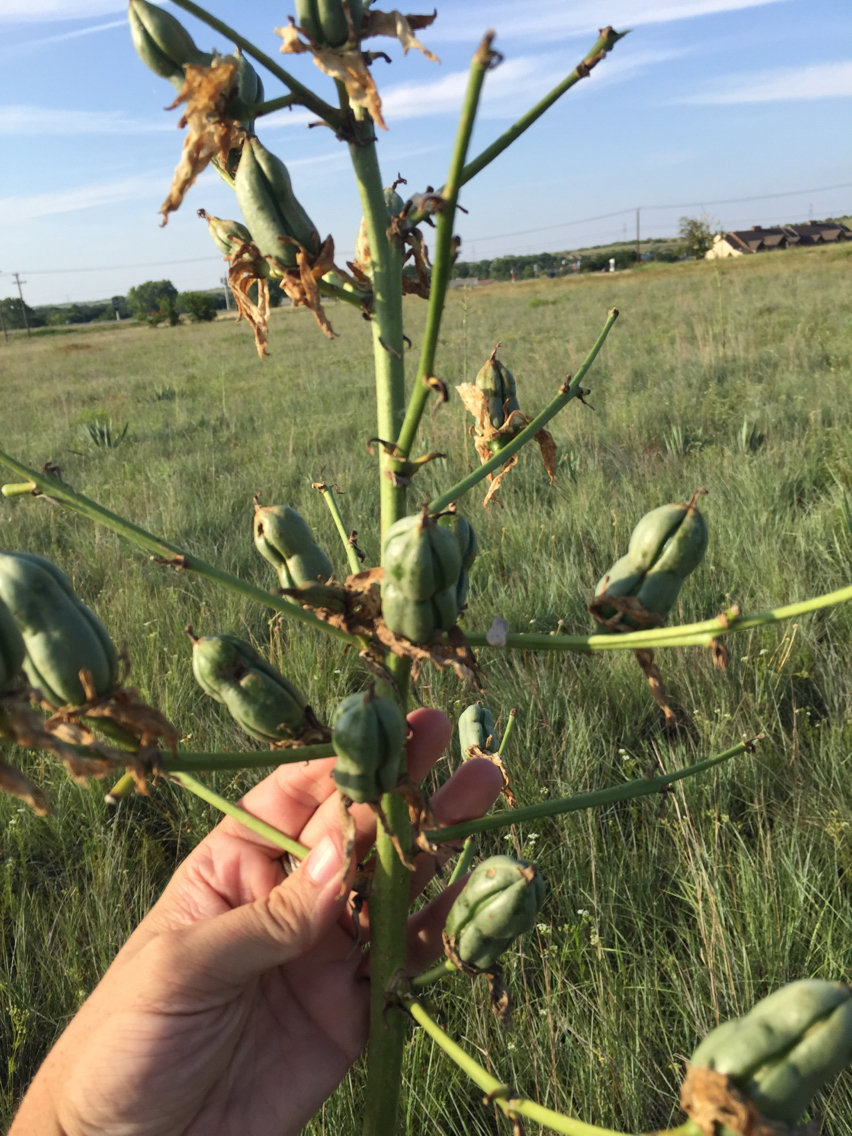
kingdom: Plantae
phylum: Tracheophyta
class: Liliopsida
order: Asparagales
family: Asparagaceae
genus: Yucca
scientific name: Yucca pallida
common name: Pale leaf yucca
